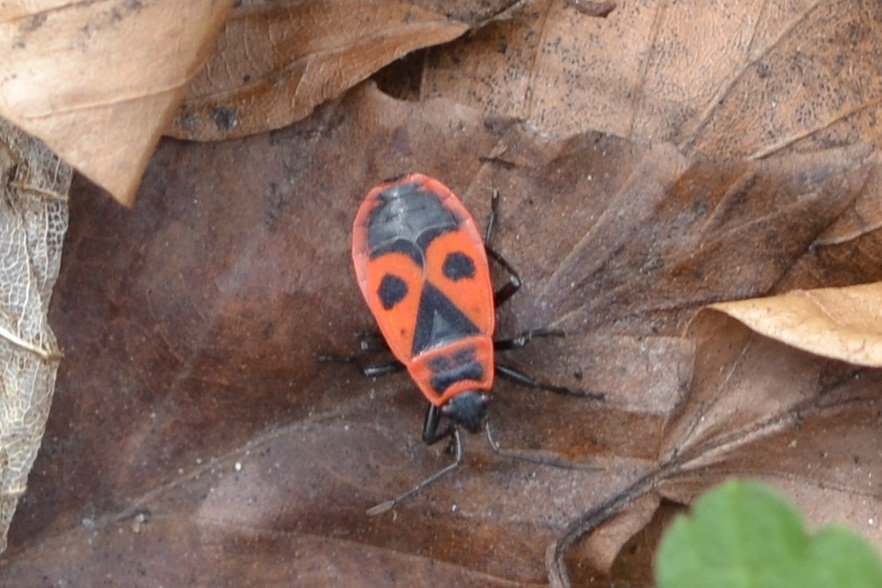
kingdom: Animalia
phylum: Arthropoda
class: Insecta
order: Hemiptera
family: Pyrrhocoridae
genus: Pyrrhocoris
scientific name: Pyrrhocoris apterus
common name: Firebug
